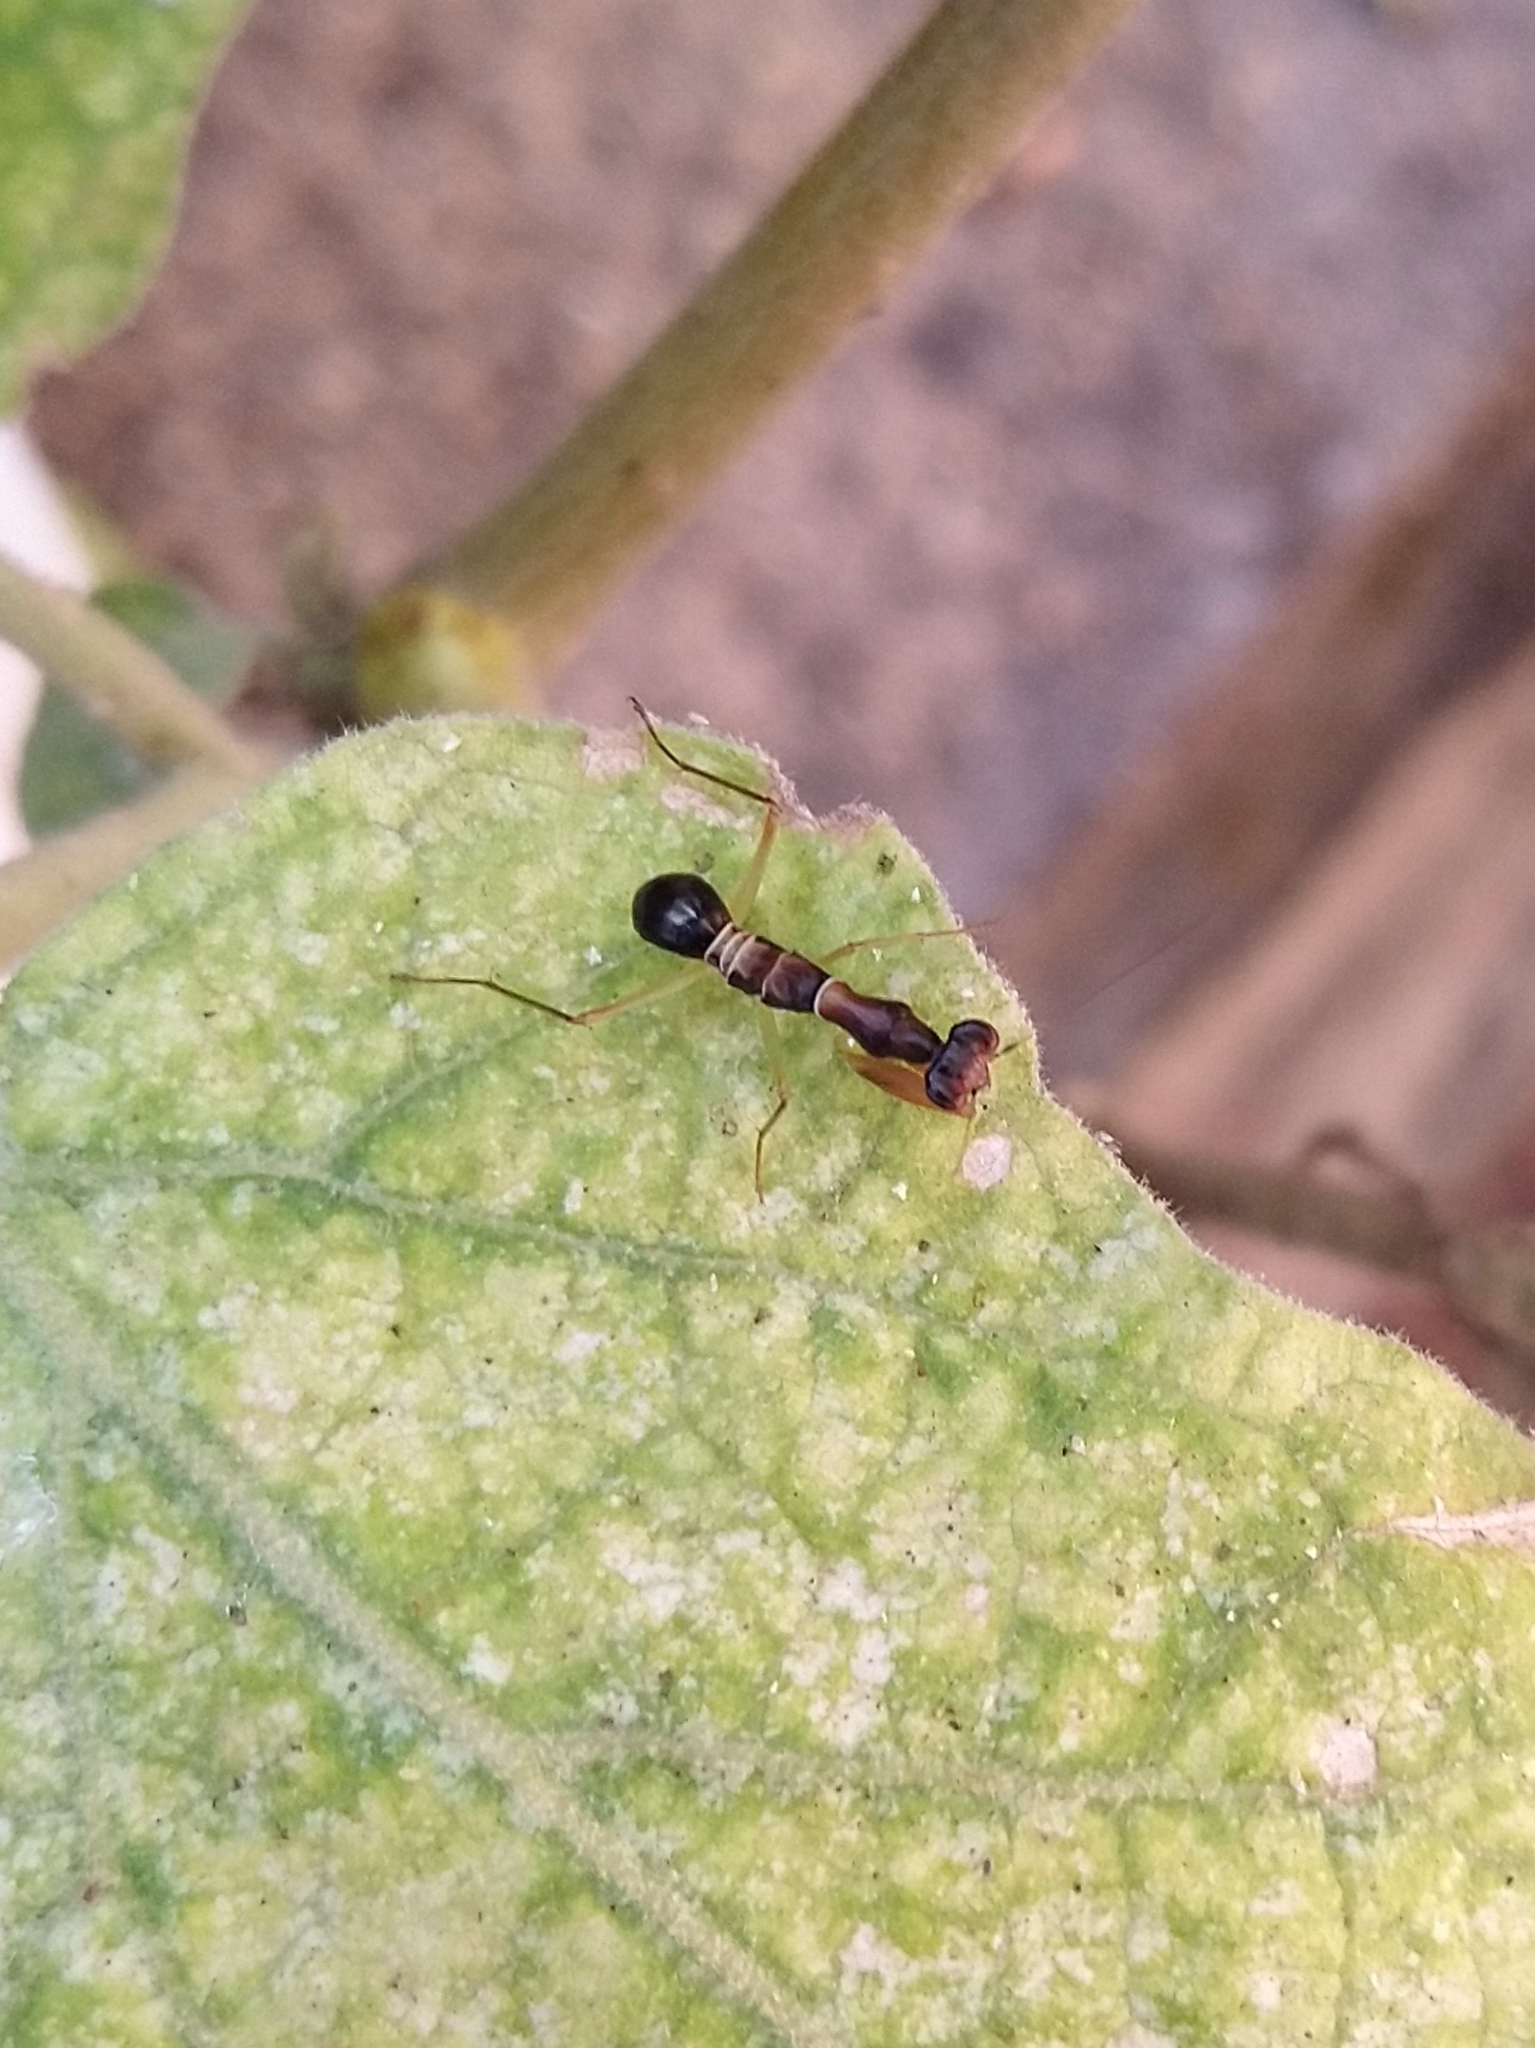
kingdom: Animalia
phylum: Arthropoda
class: Insecta
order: Mantodea
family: Hymenopodidae
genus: Odontomantis
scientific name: Odontomantis planiceps
